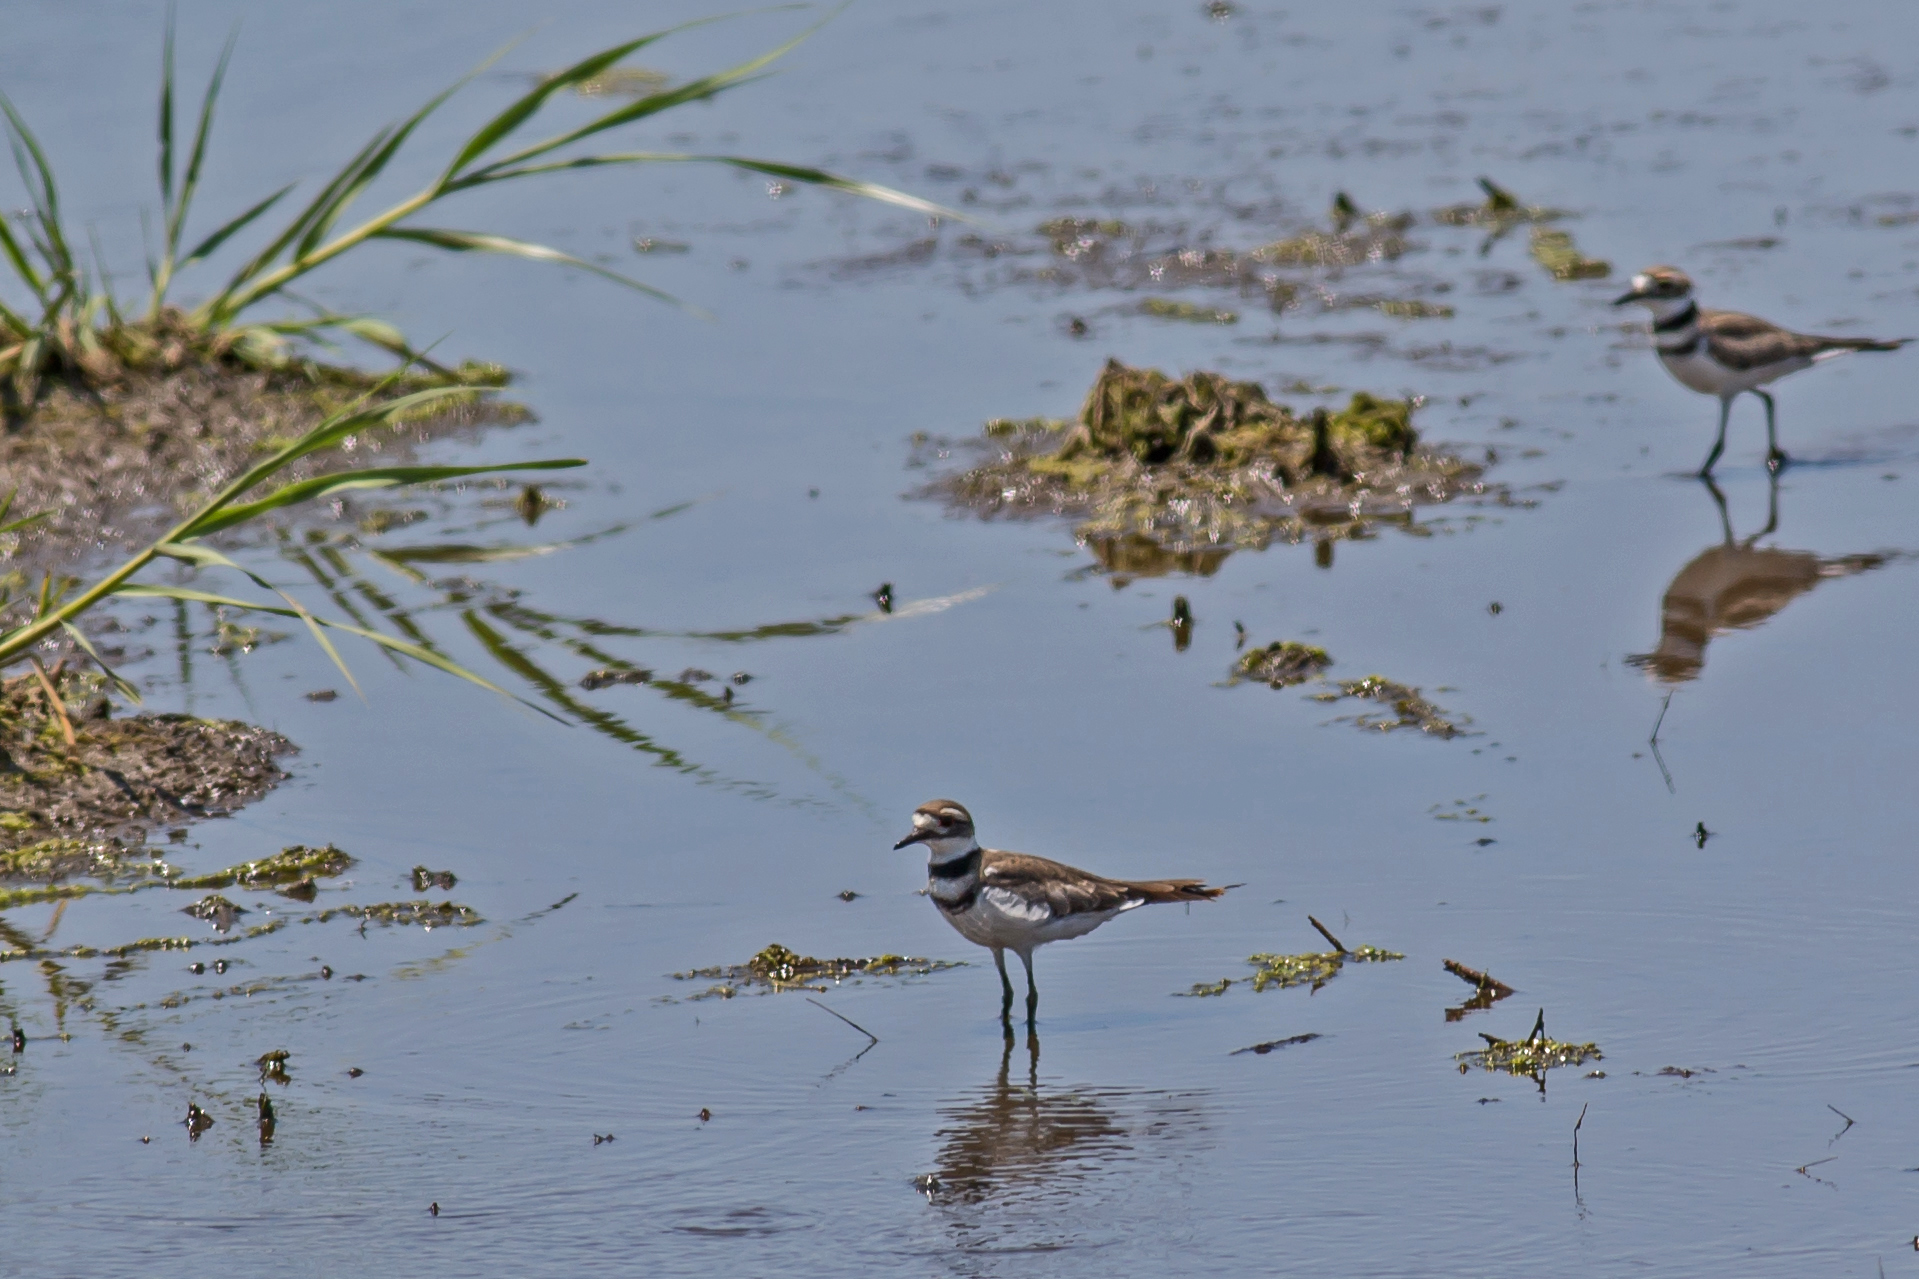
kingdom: Animalia
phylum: Chordata
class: Aves
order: Charadriiformes
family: Charadriidae
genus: Charadrius
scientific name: Charadrius vociferus
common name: Killdeer
